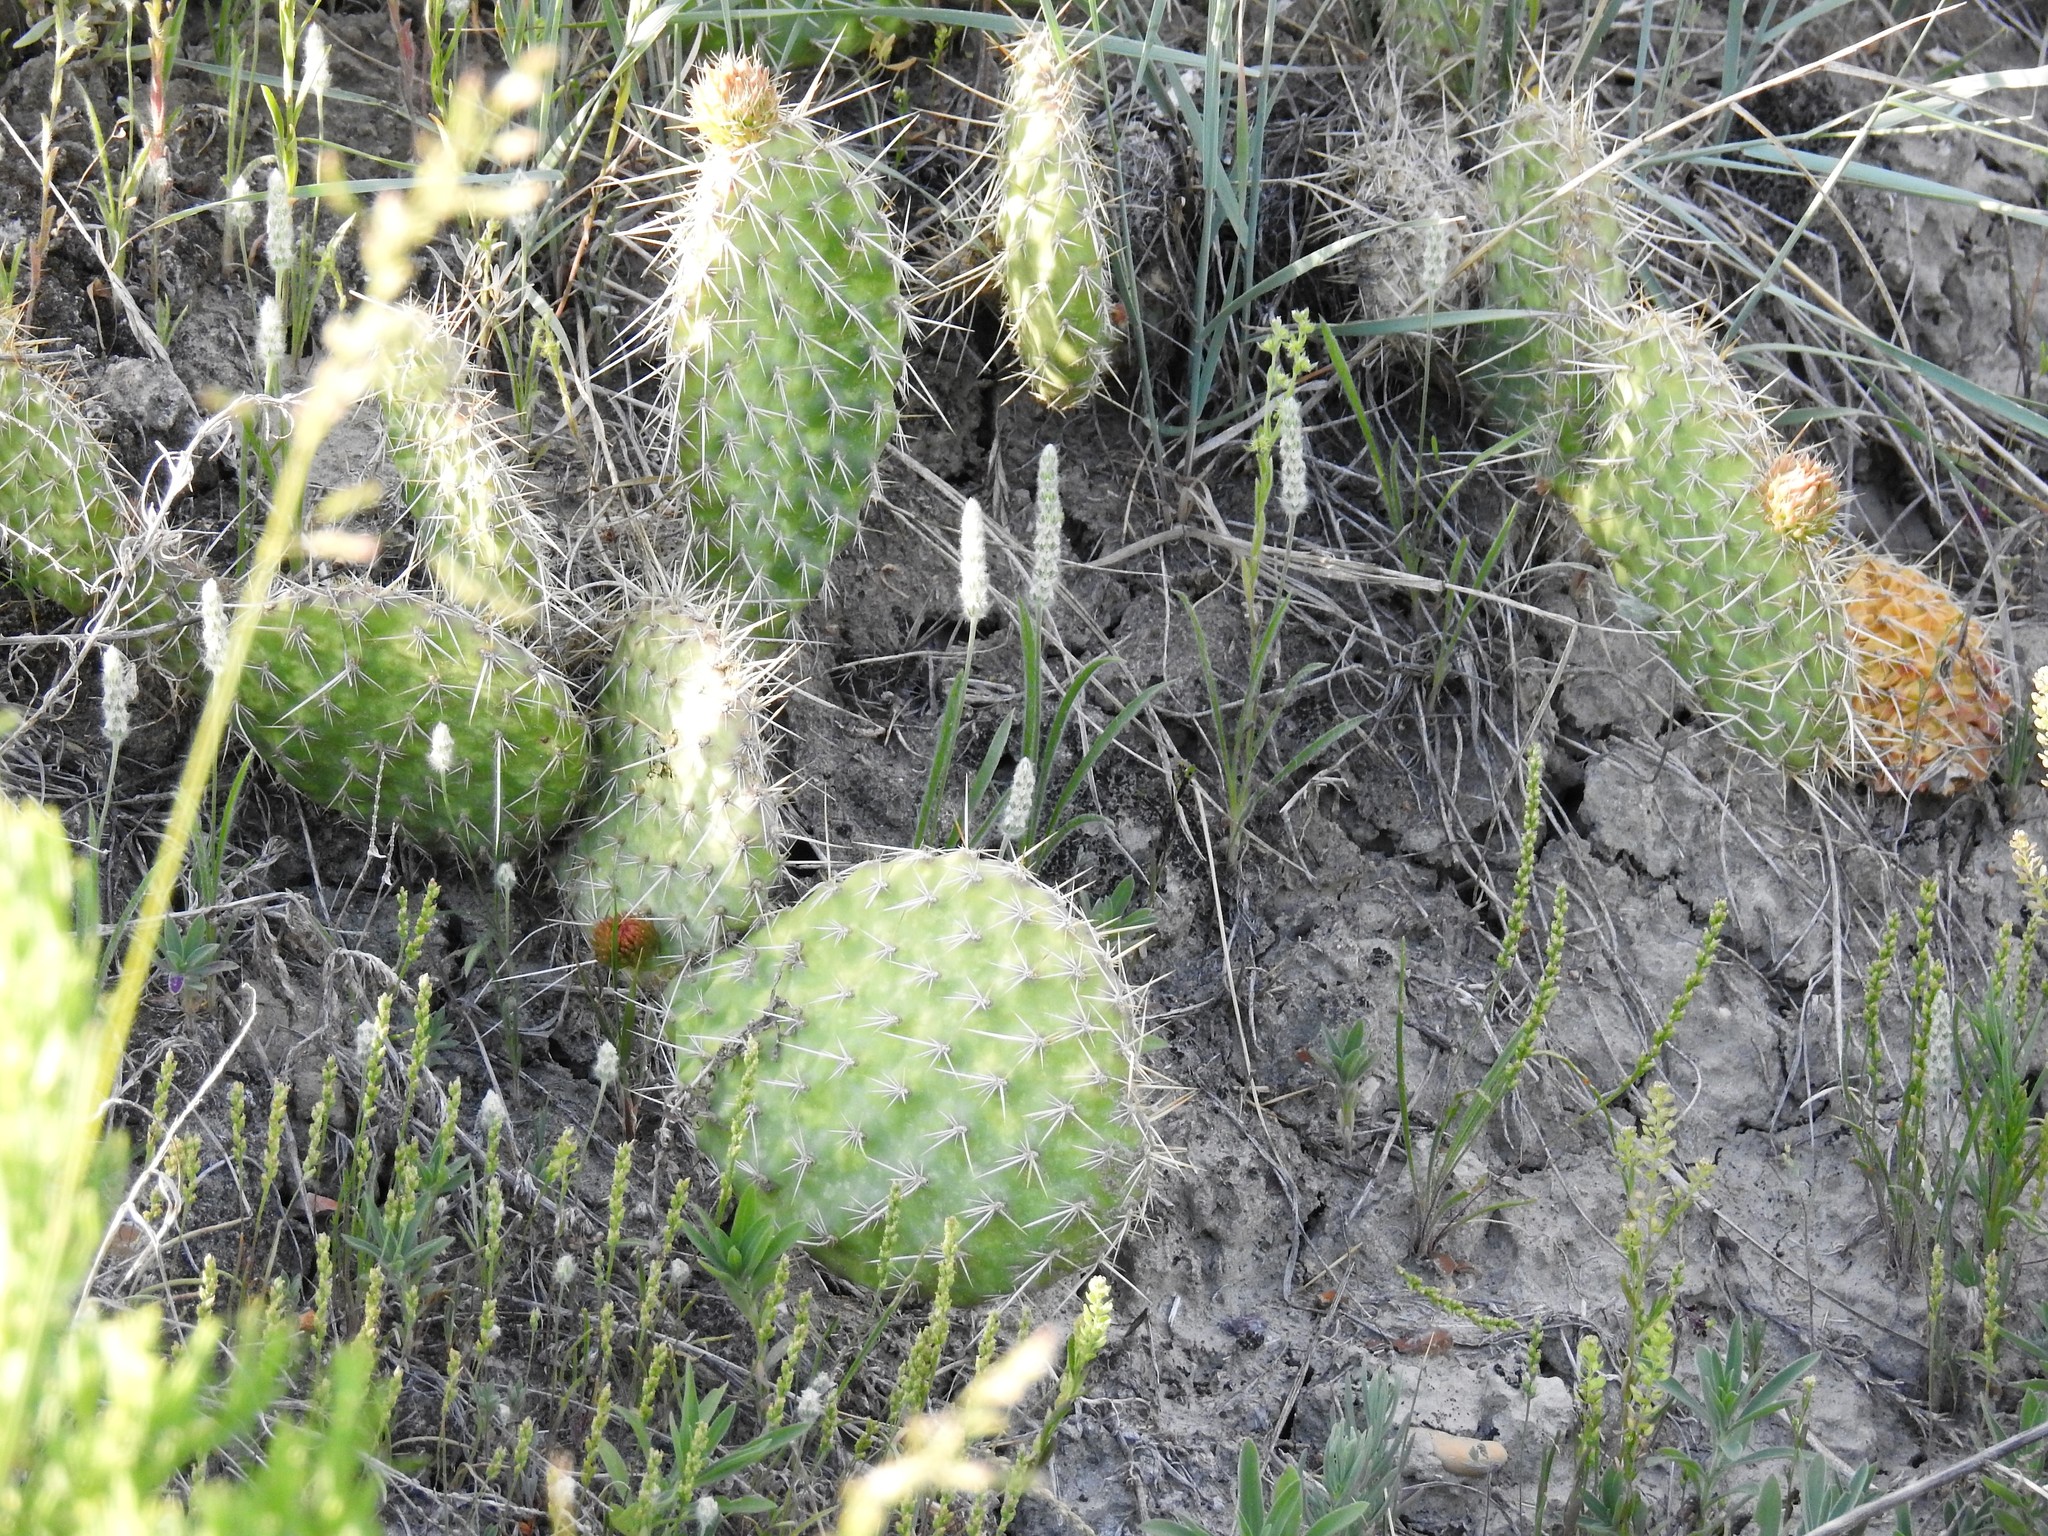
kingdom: Plantae
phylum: Tracheophyta
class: Magnoliopsida
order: Caryophyllales
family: Cactaceae
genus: Opuntia
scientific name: Opuntia polyacantha
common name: Plains prickly-pear
